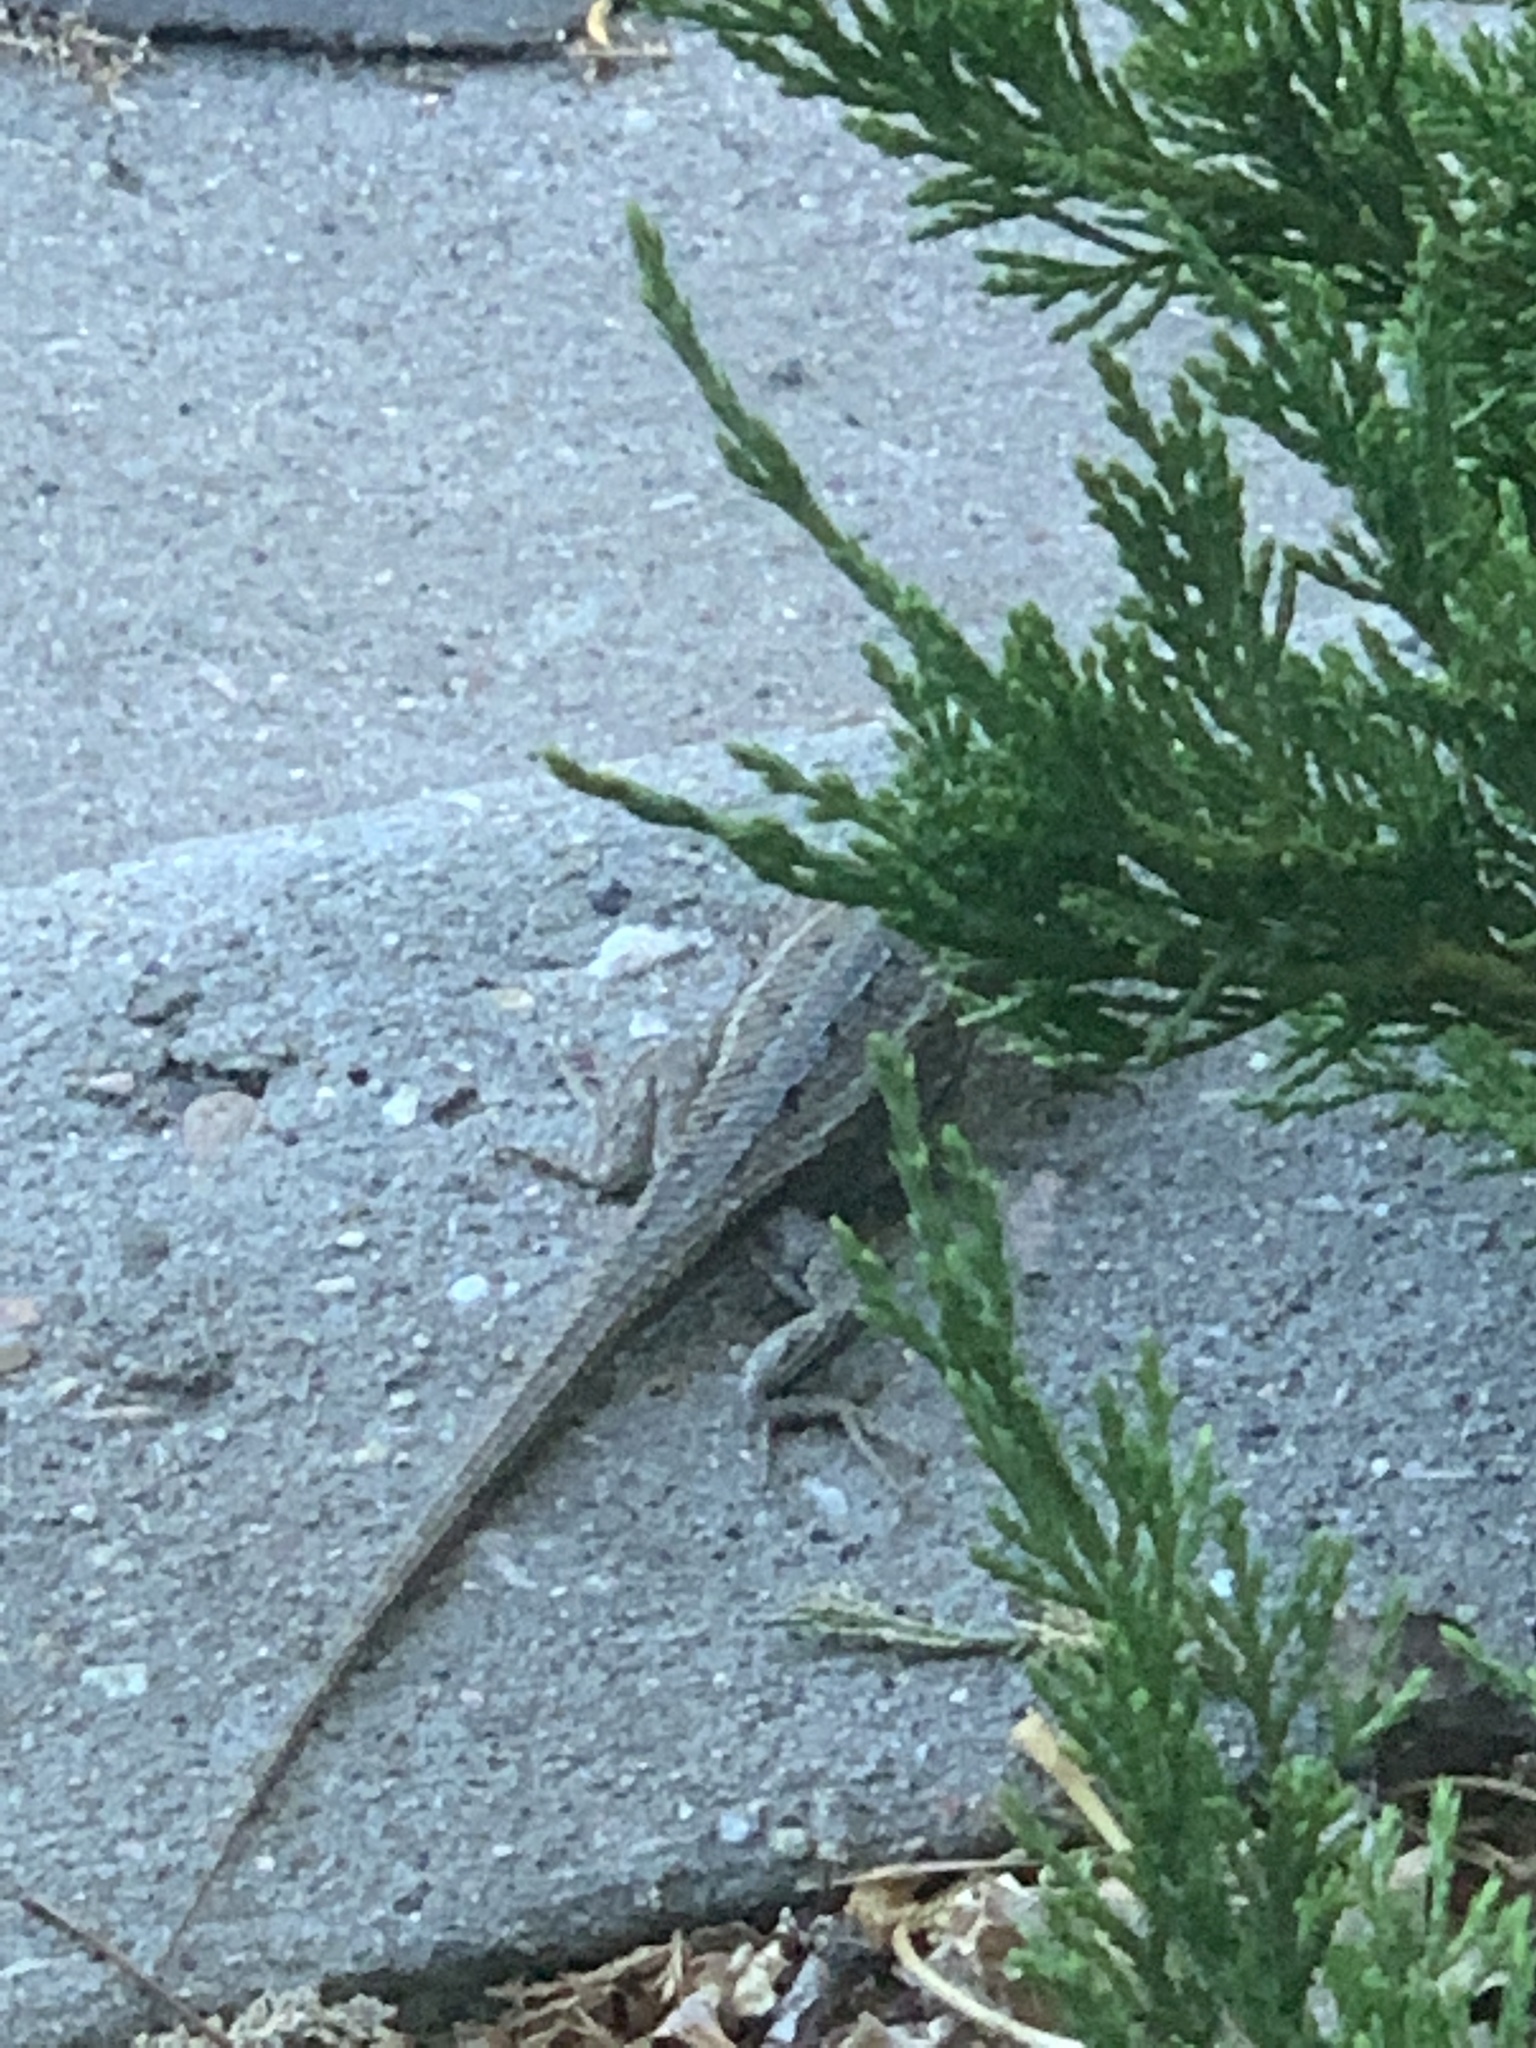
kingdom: Animalia
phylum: Chordata
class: Squamata
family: Phrynosomatidae
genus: Sceloporus
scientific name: Sceloporus cowlesi
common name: White sands prairie lizard
